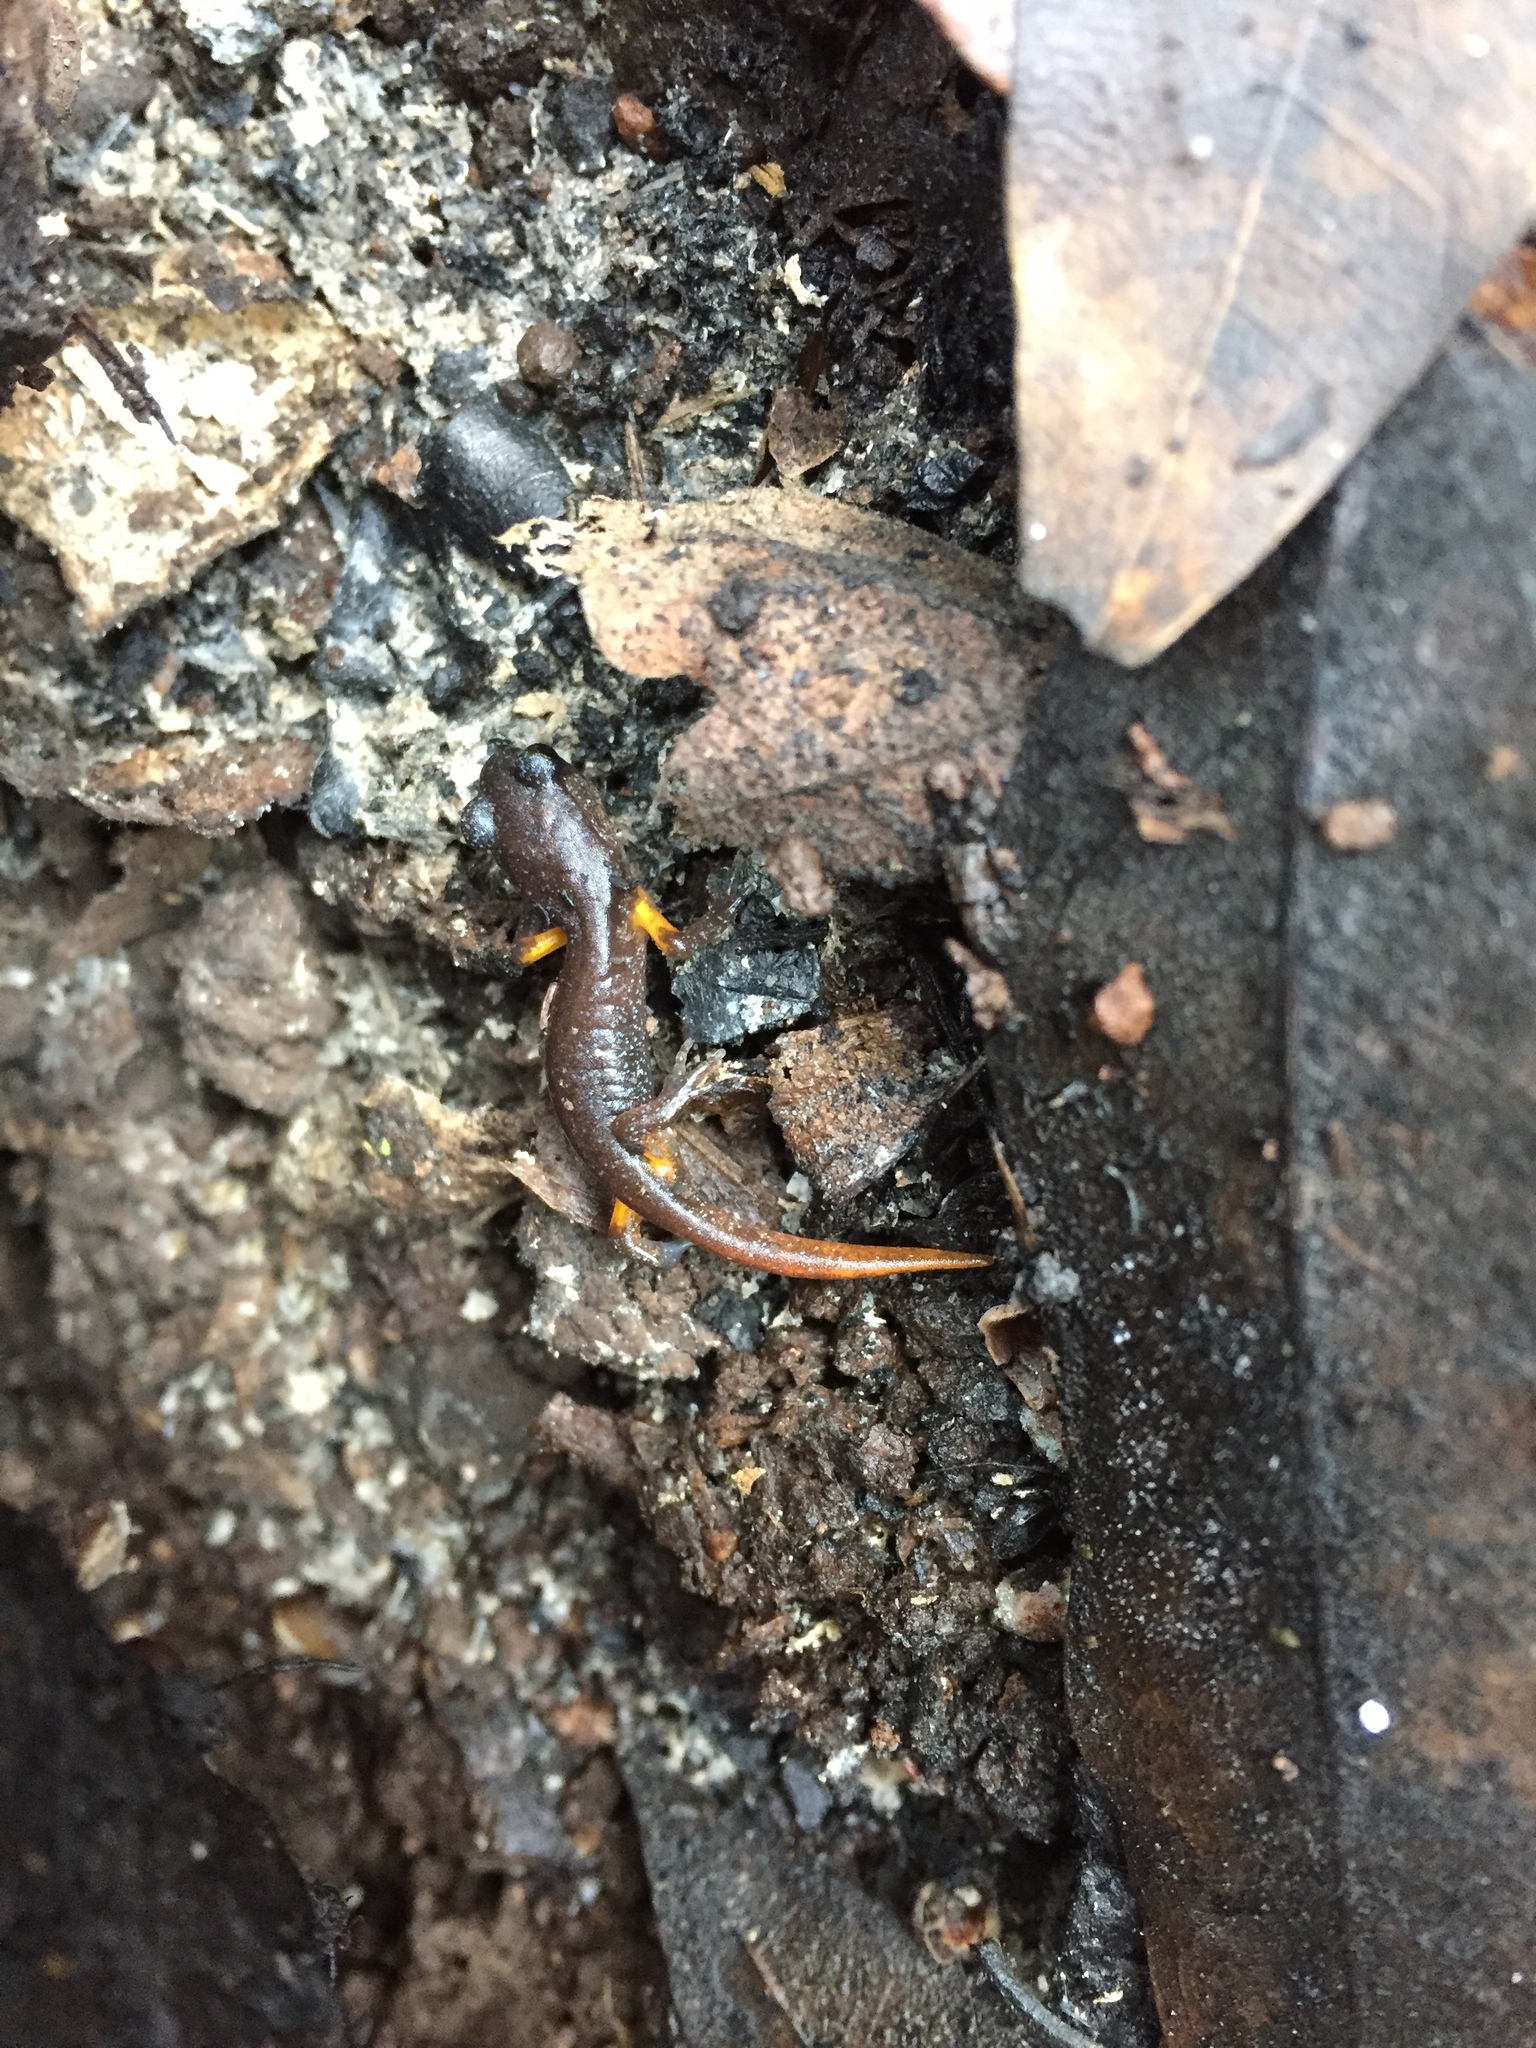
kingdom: Animalia
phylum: Chordata
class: Amphibia
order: Caudata
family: Plethodontidae
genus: Ensatina
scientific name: Ensatina eschscholtzii
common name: Ensatina
